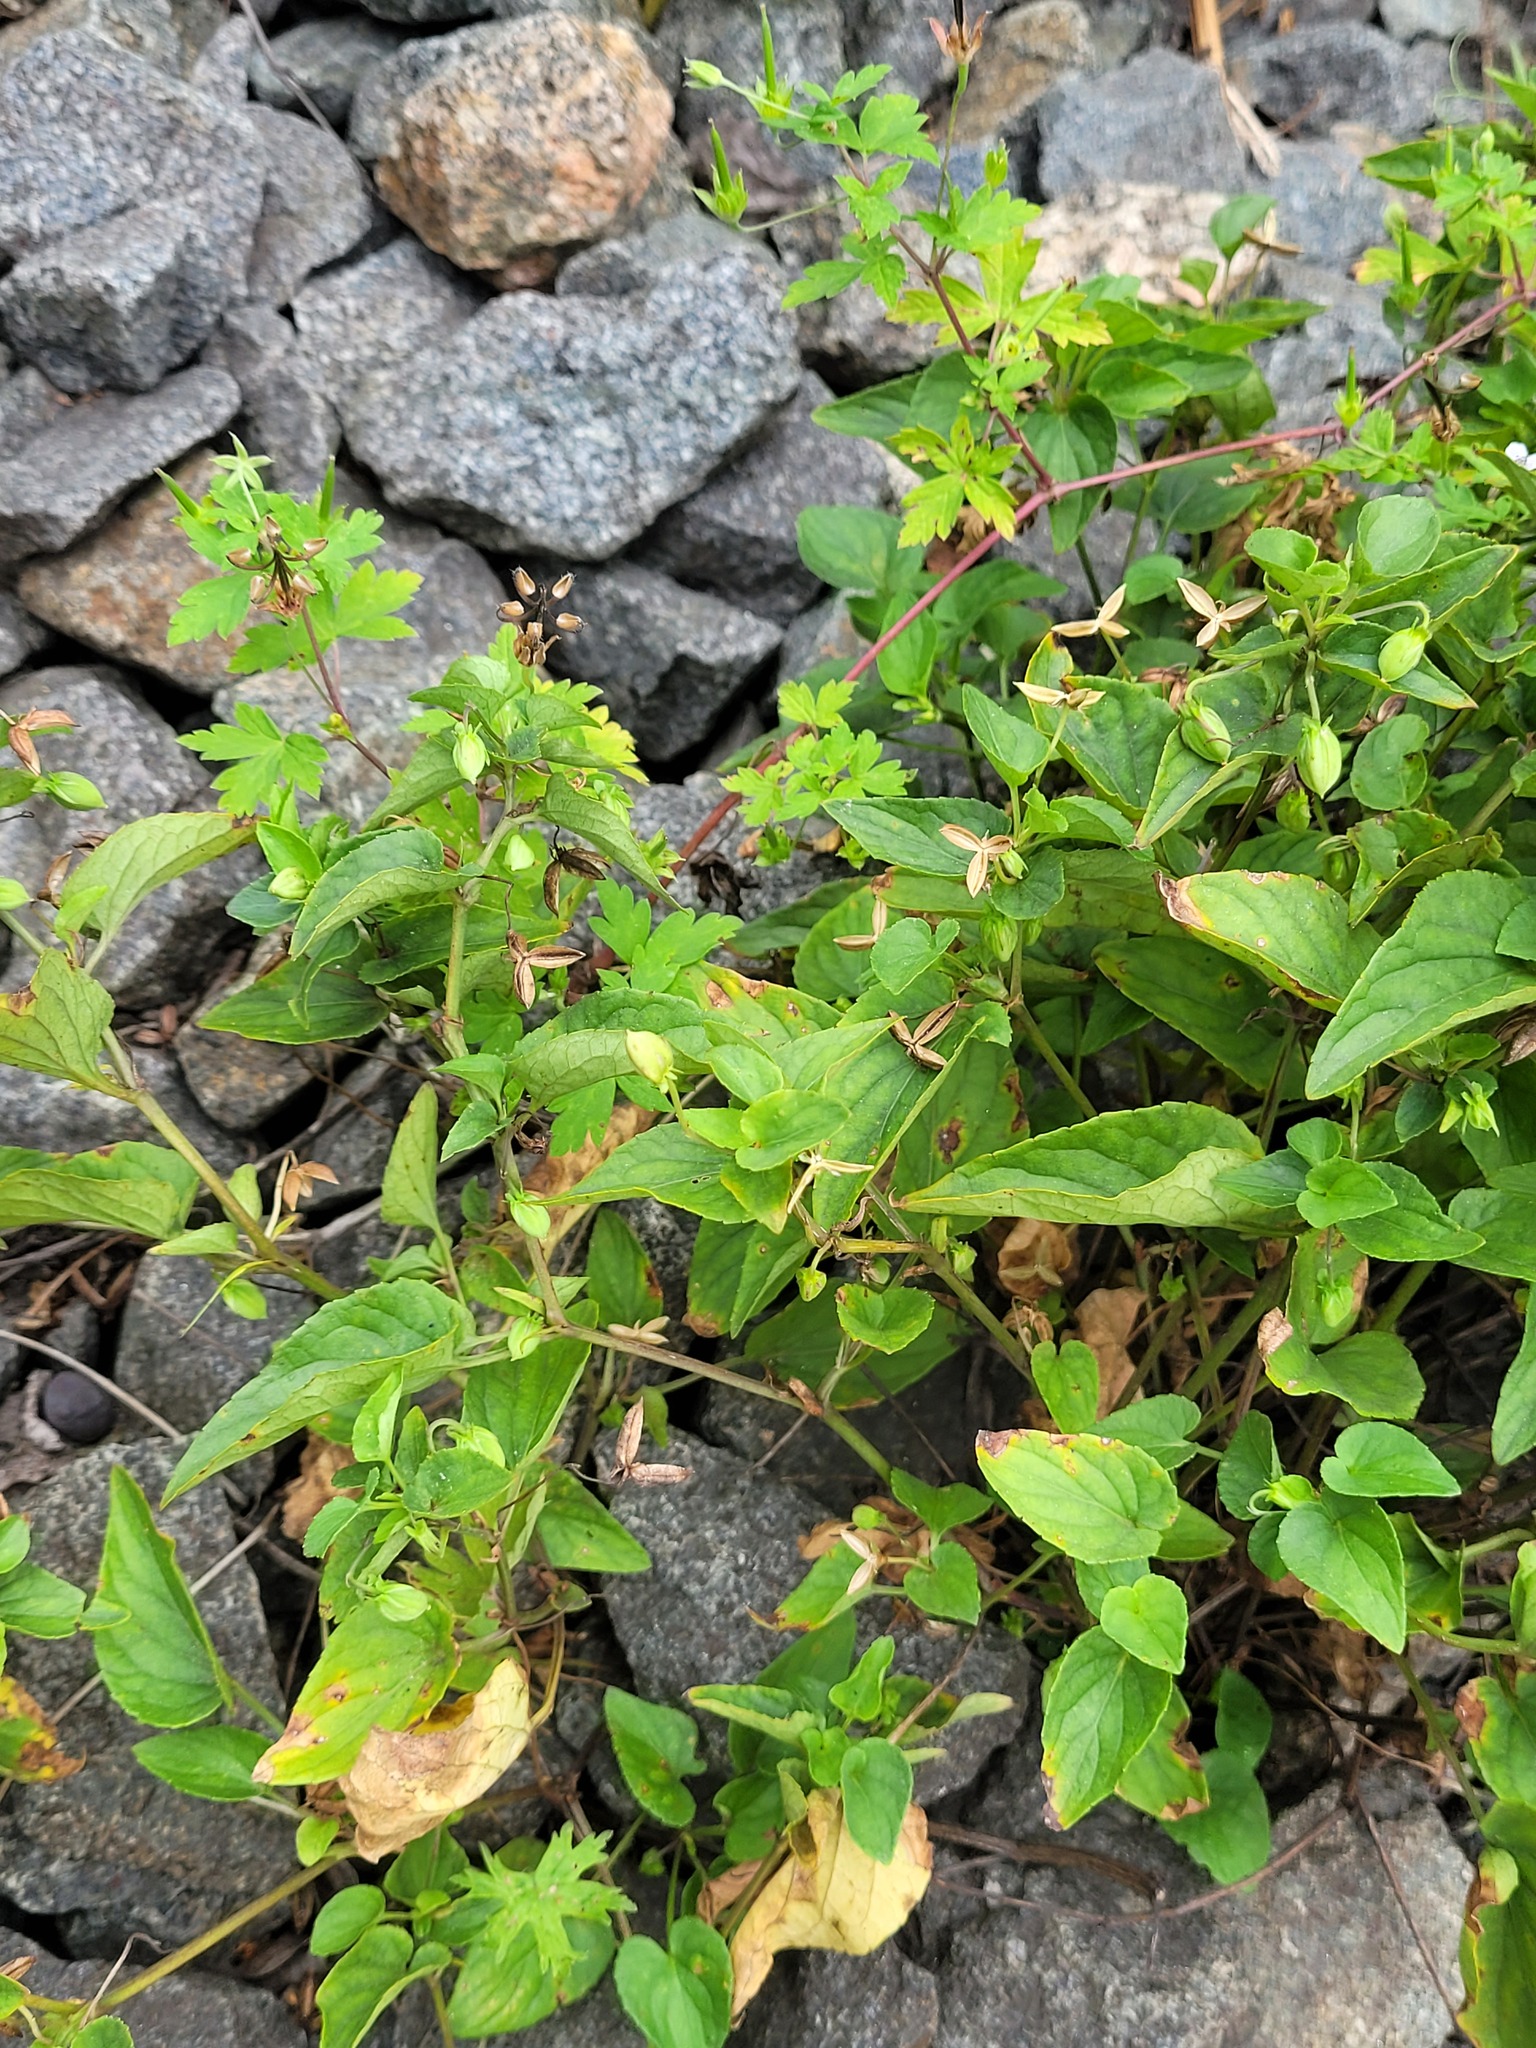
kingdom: Plantae
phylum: Tracheophyta
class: Magnoliopsida
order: Malpighiales
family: Violaceae
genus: Viola
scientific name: Viola canina
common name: Heath dog-violet
